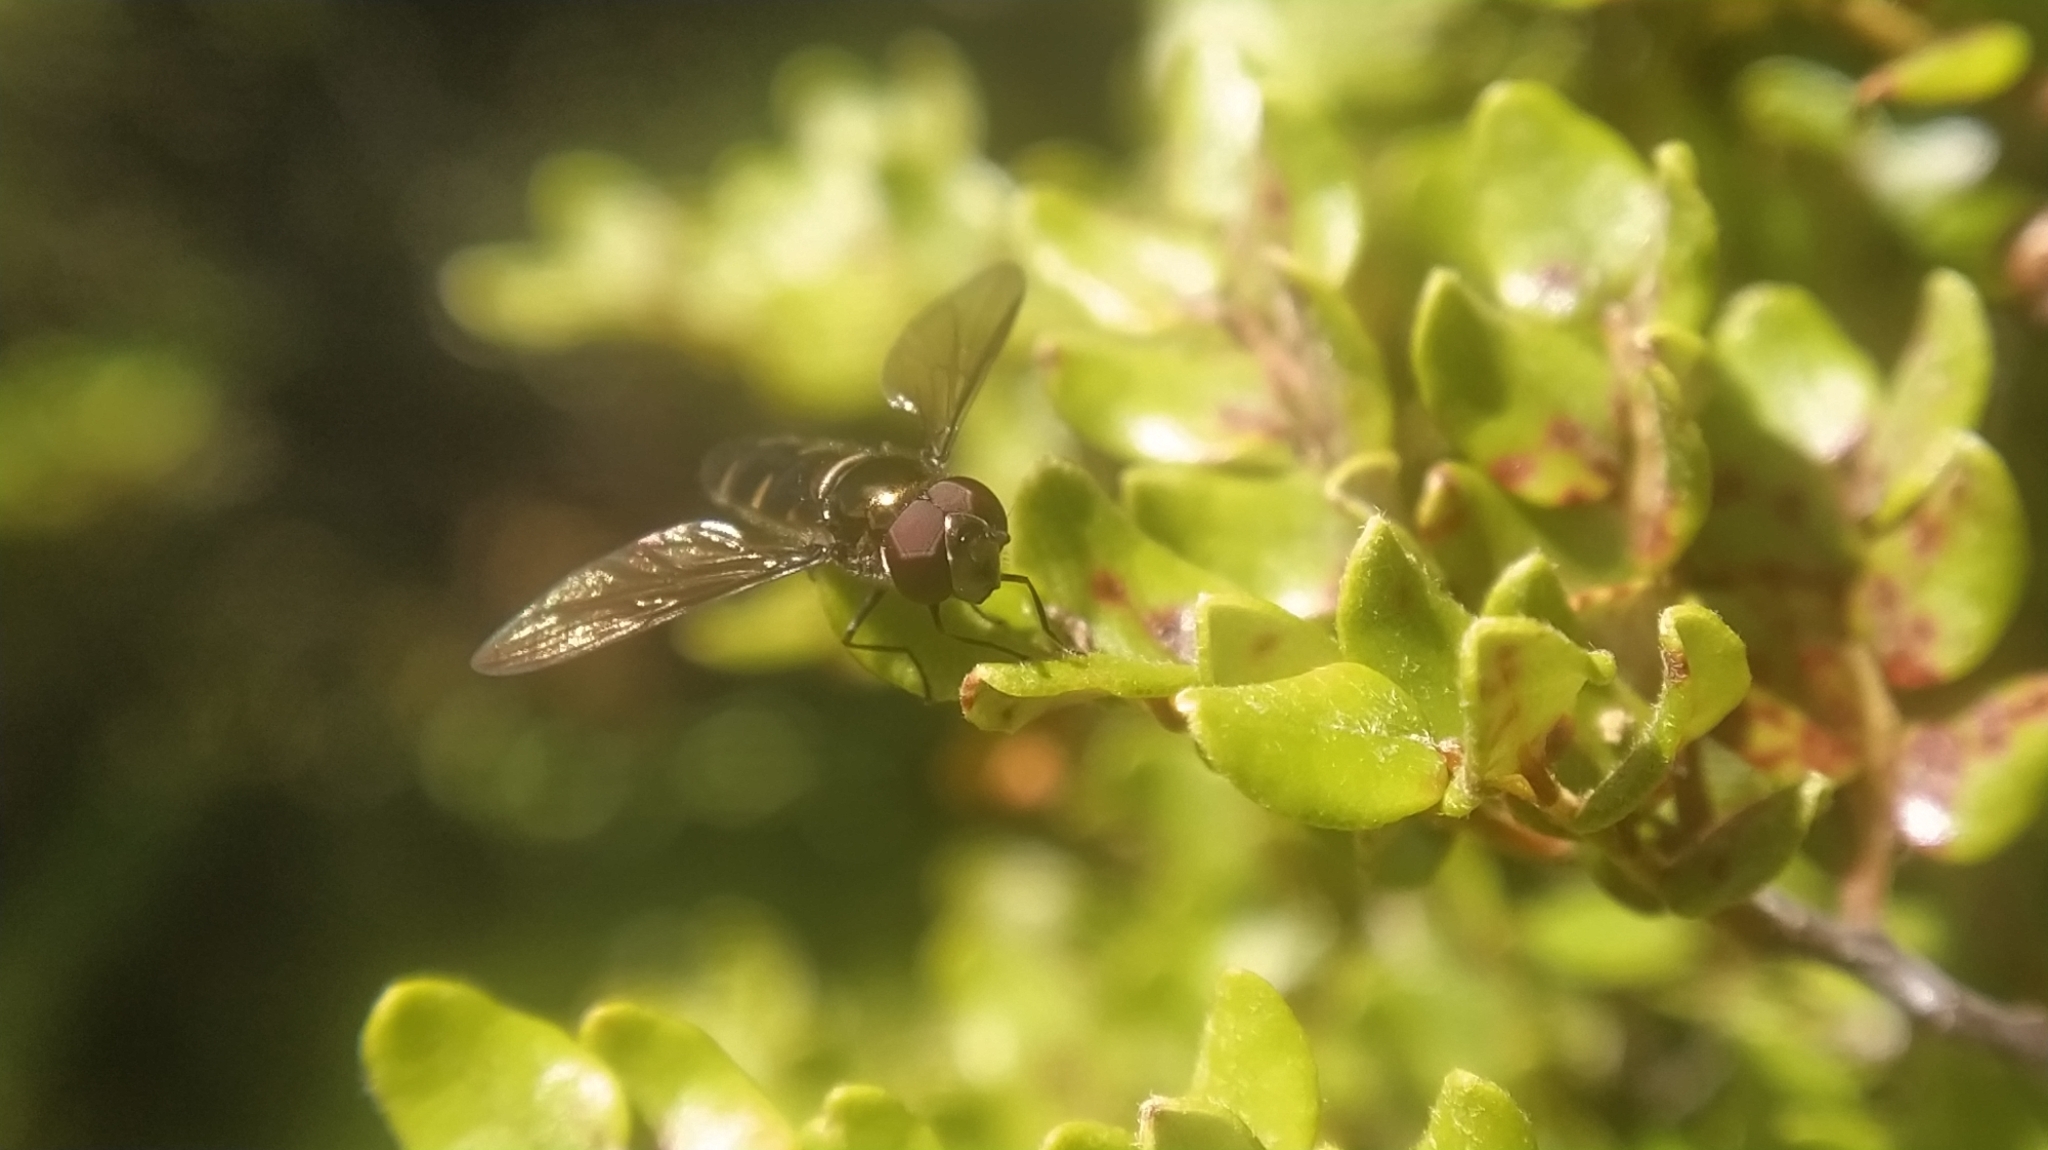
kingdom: Animalia
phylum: Arthropoda
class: Insecta
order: Diptera
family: Syrphidae
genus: Melangyna
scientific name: Melangyna novaezelandiae
